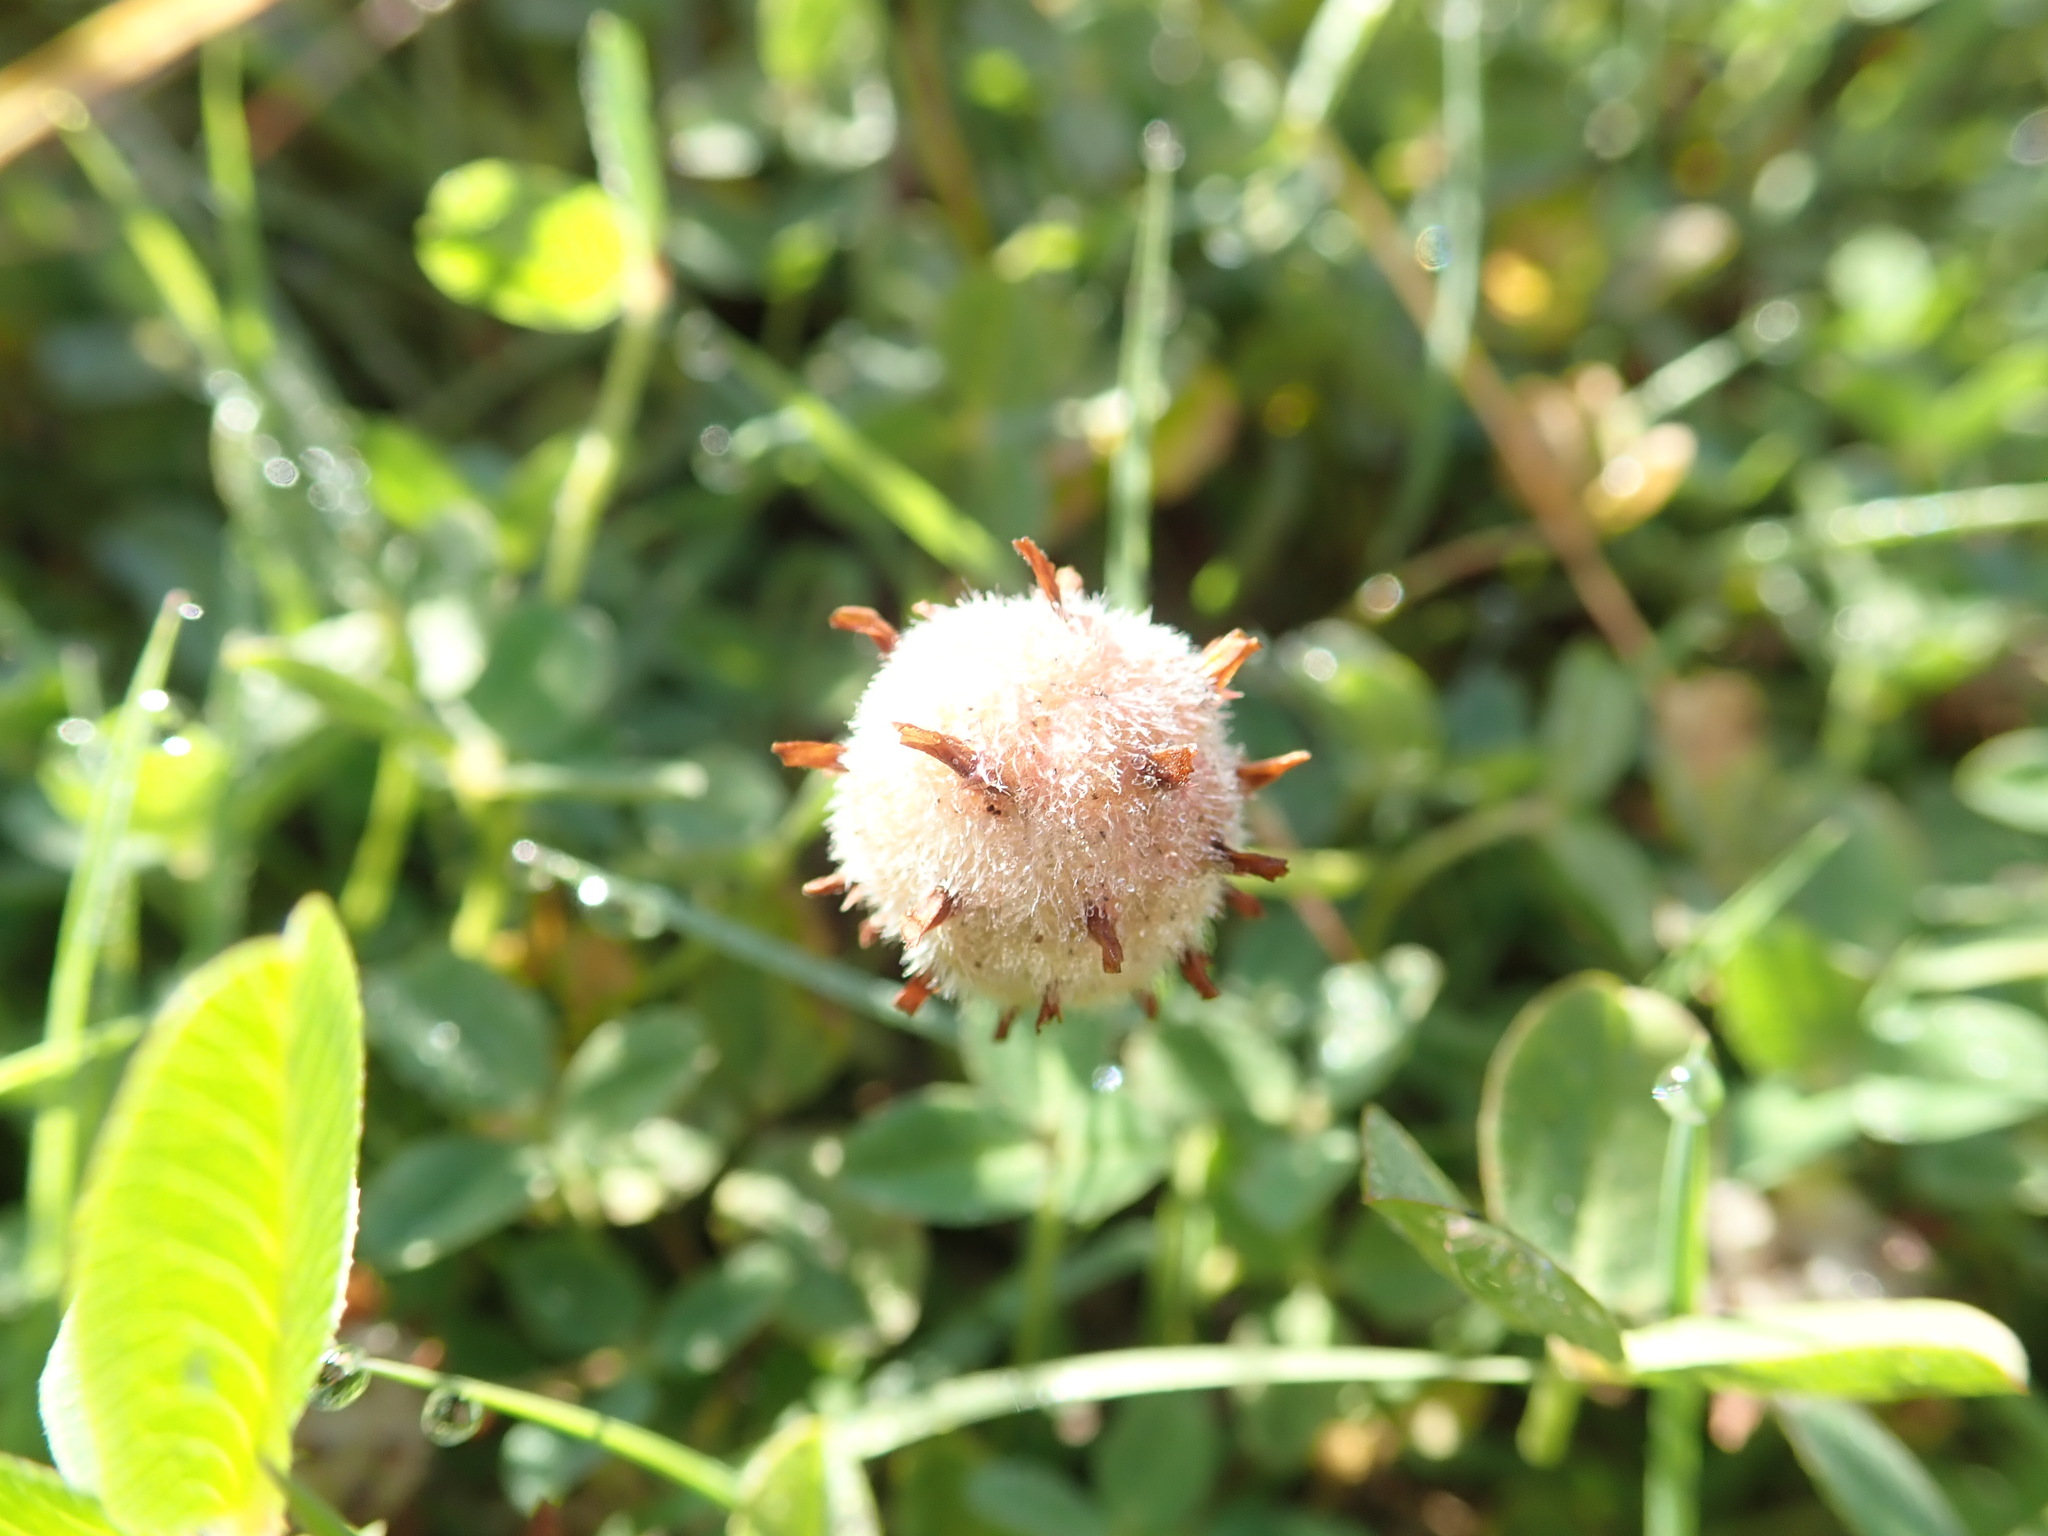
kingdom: Plantae
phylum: Tracheophyta
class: Magnoliopsida
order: Fabales
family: Fabaceae
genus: Trifolium
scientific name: Trifolium fragiferum
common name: Strawberry clover
